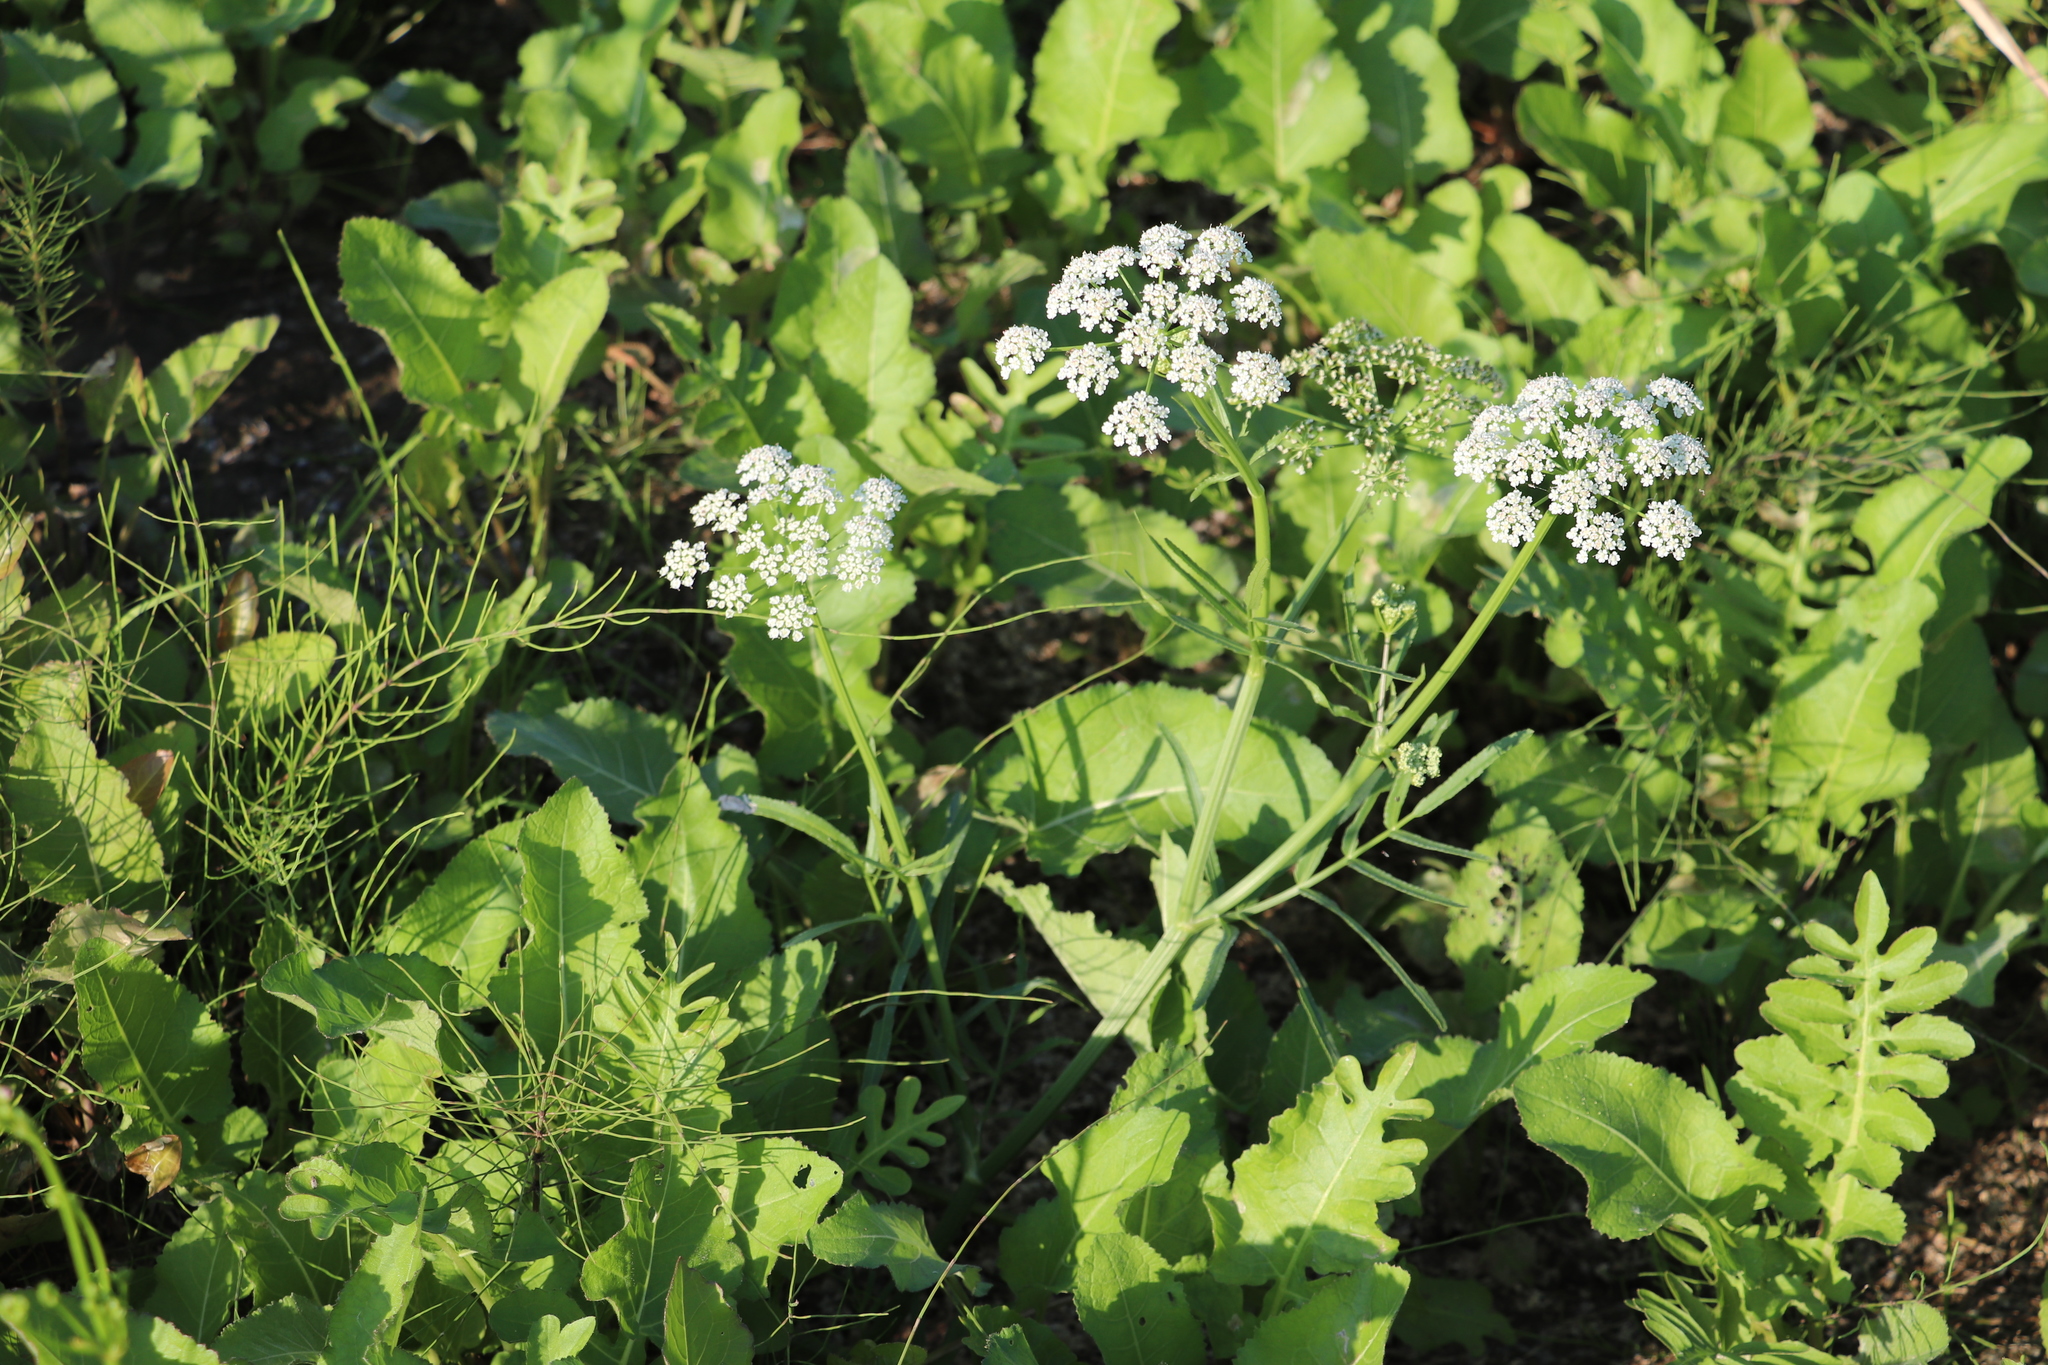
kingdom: Plantae
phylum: Tracheophyta
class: Magnoliopsida
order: Apiales
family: Apiaceae
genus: Sium
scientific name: Sium latifolium
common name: Greater water-parsnip
